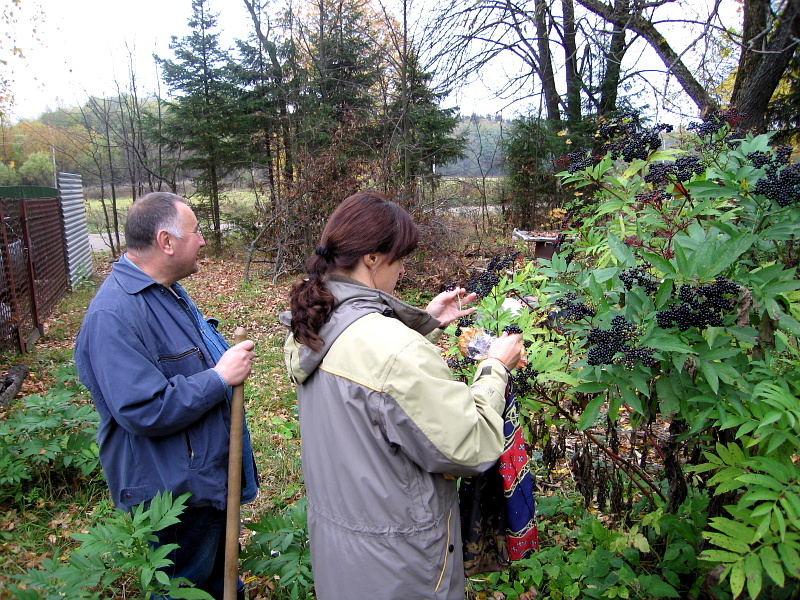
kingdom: Plantae
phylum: Tracheophyta
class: Magnoliopsida
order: Dipsacales
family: Viburnaceae
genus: Sambucus
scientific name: Sambucus ebulus
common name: Dwarf elder
